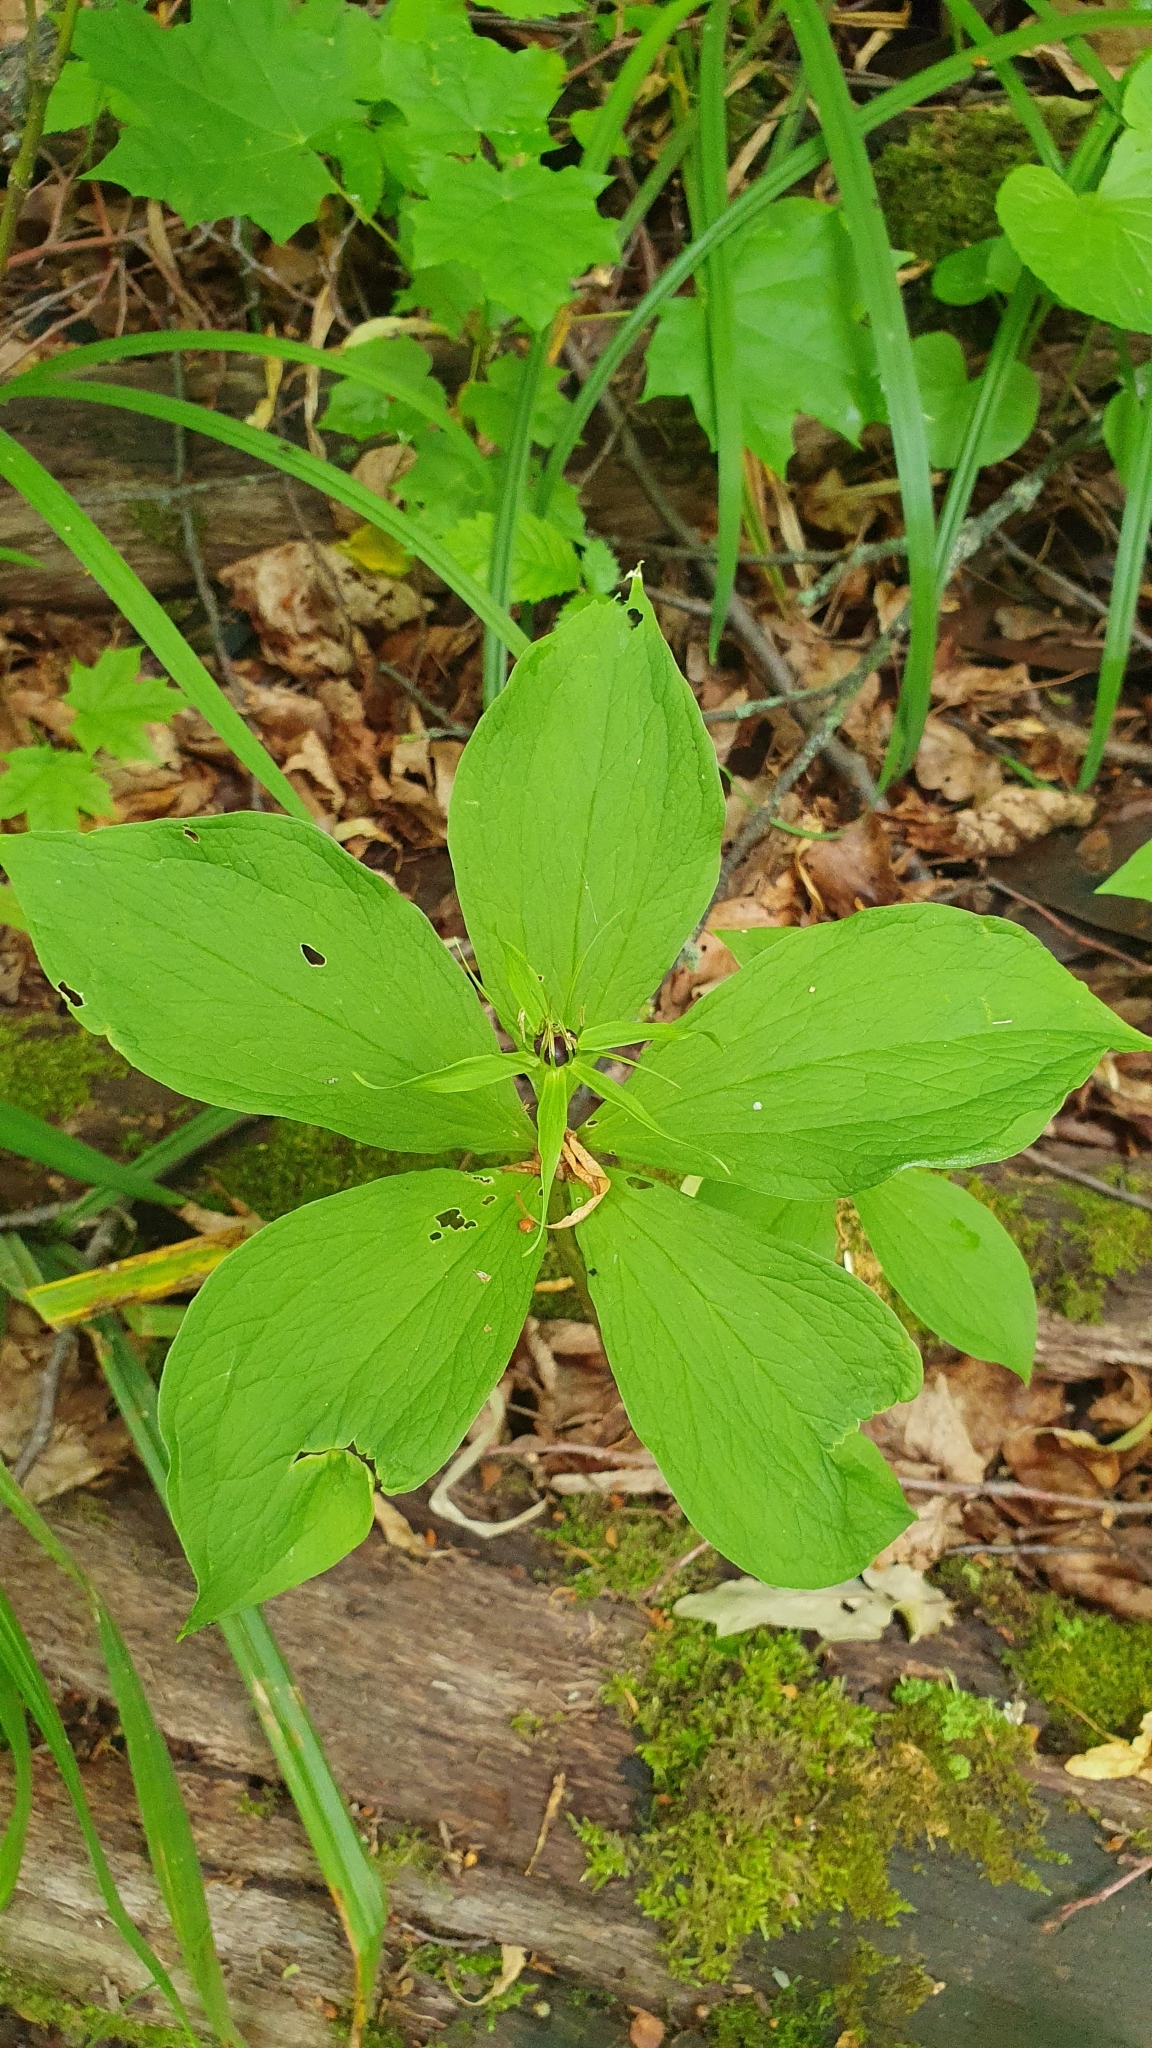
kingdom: Plantae
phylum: Tracheophyta
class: Liliopsida
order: Liliales
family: Melanthiaceae
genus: Paris
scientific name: Paris quadrifolia
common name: Herb-paris
